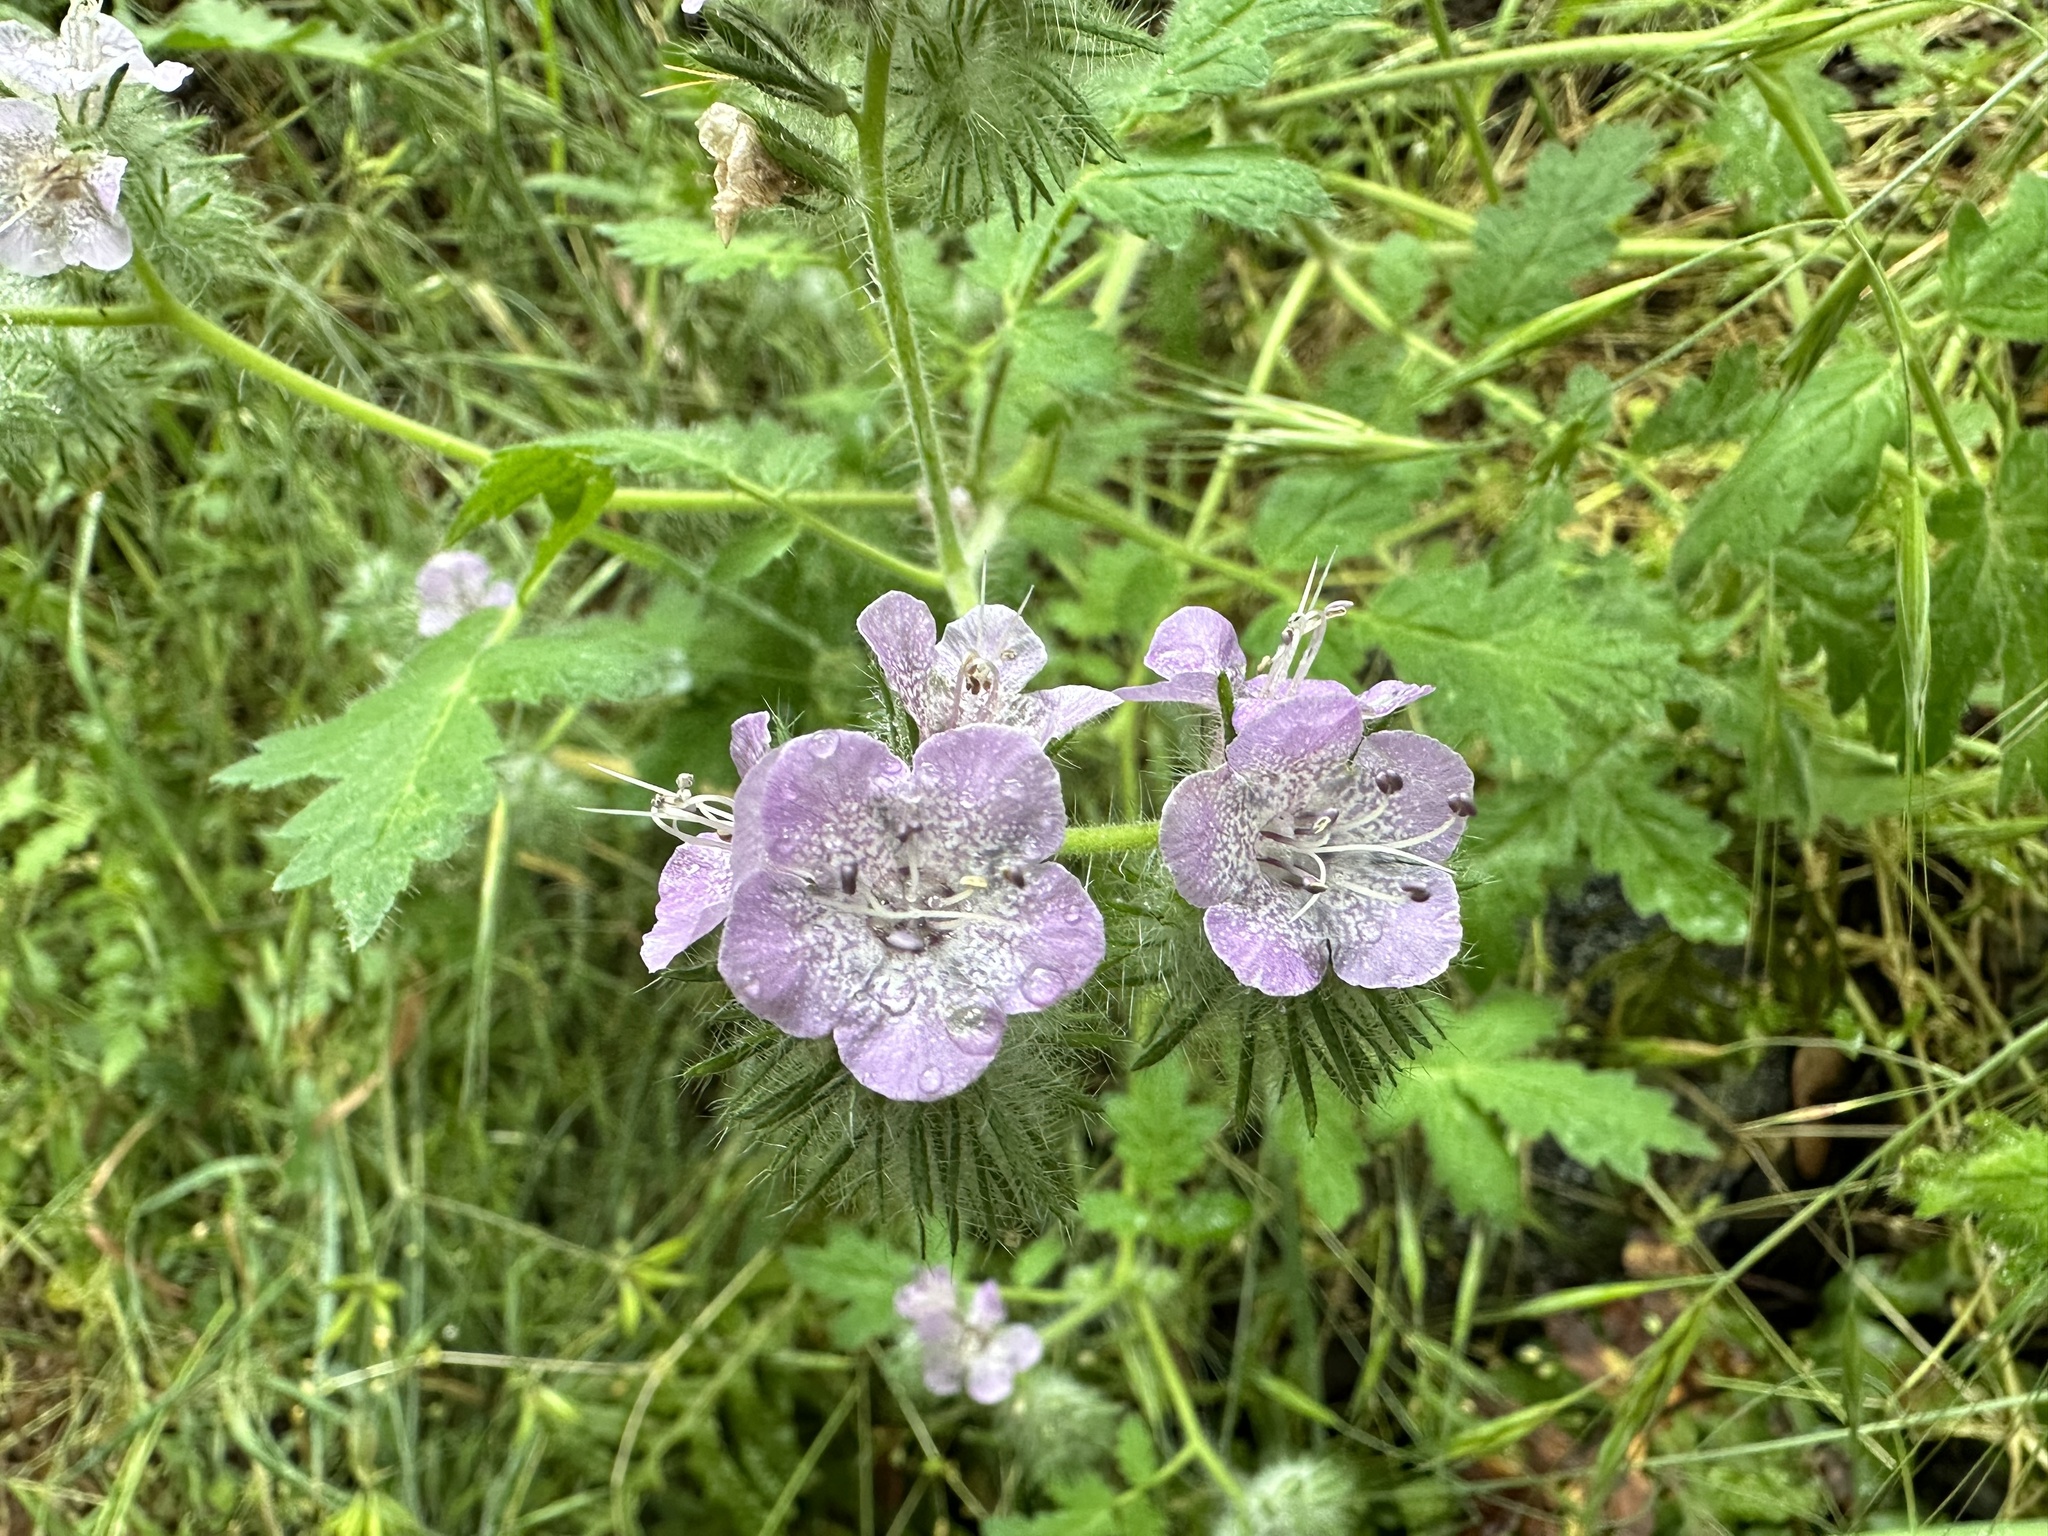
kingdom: Plantae
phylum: Tracheophyta
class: Magnoliopsida
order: Boraginales
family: Hydrophyllaceae
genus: Phacelia
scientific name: Phacelia cicutaria
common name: Caterpillar phacelia
